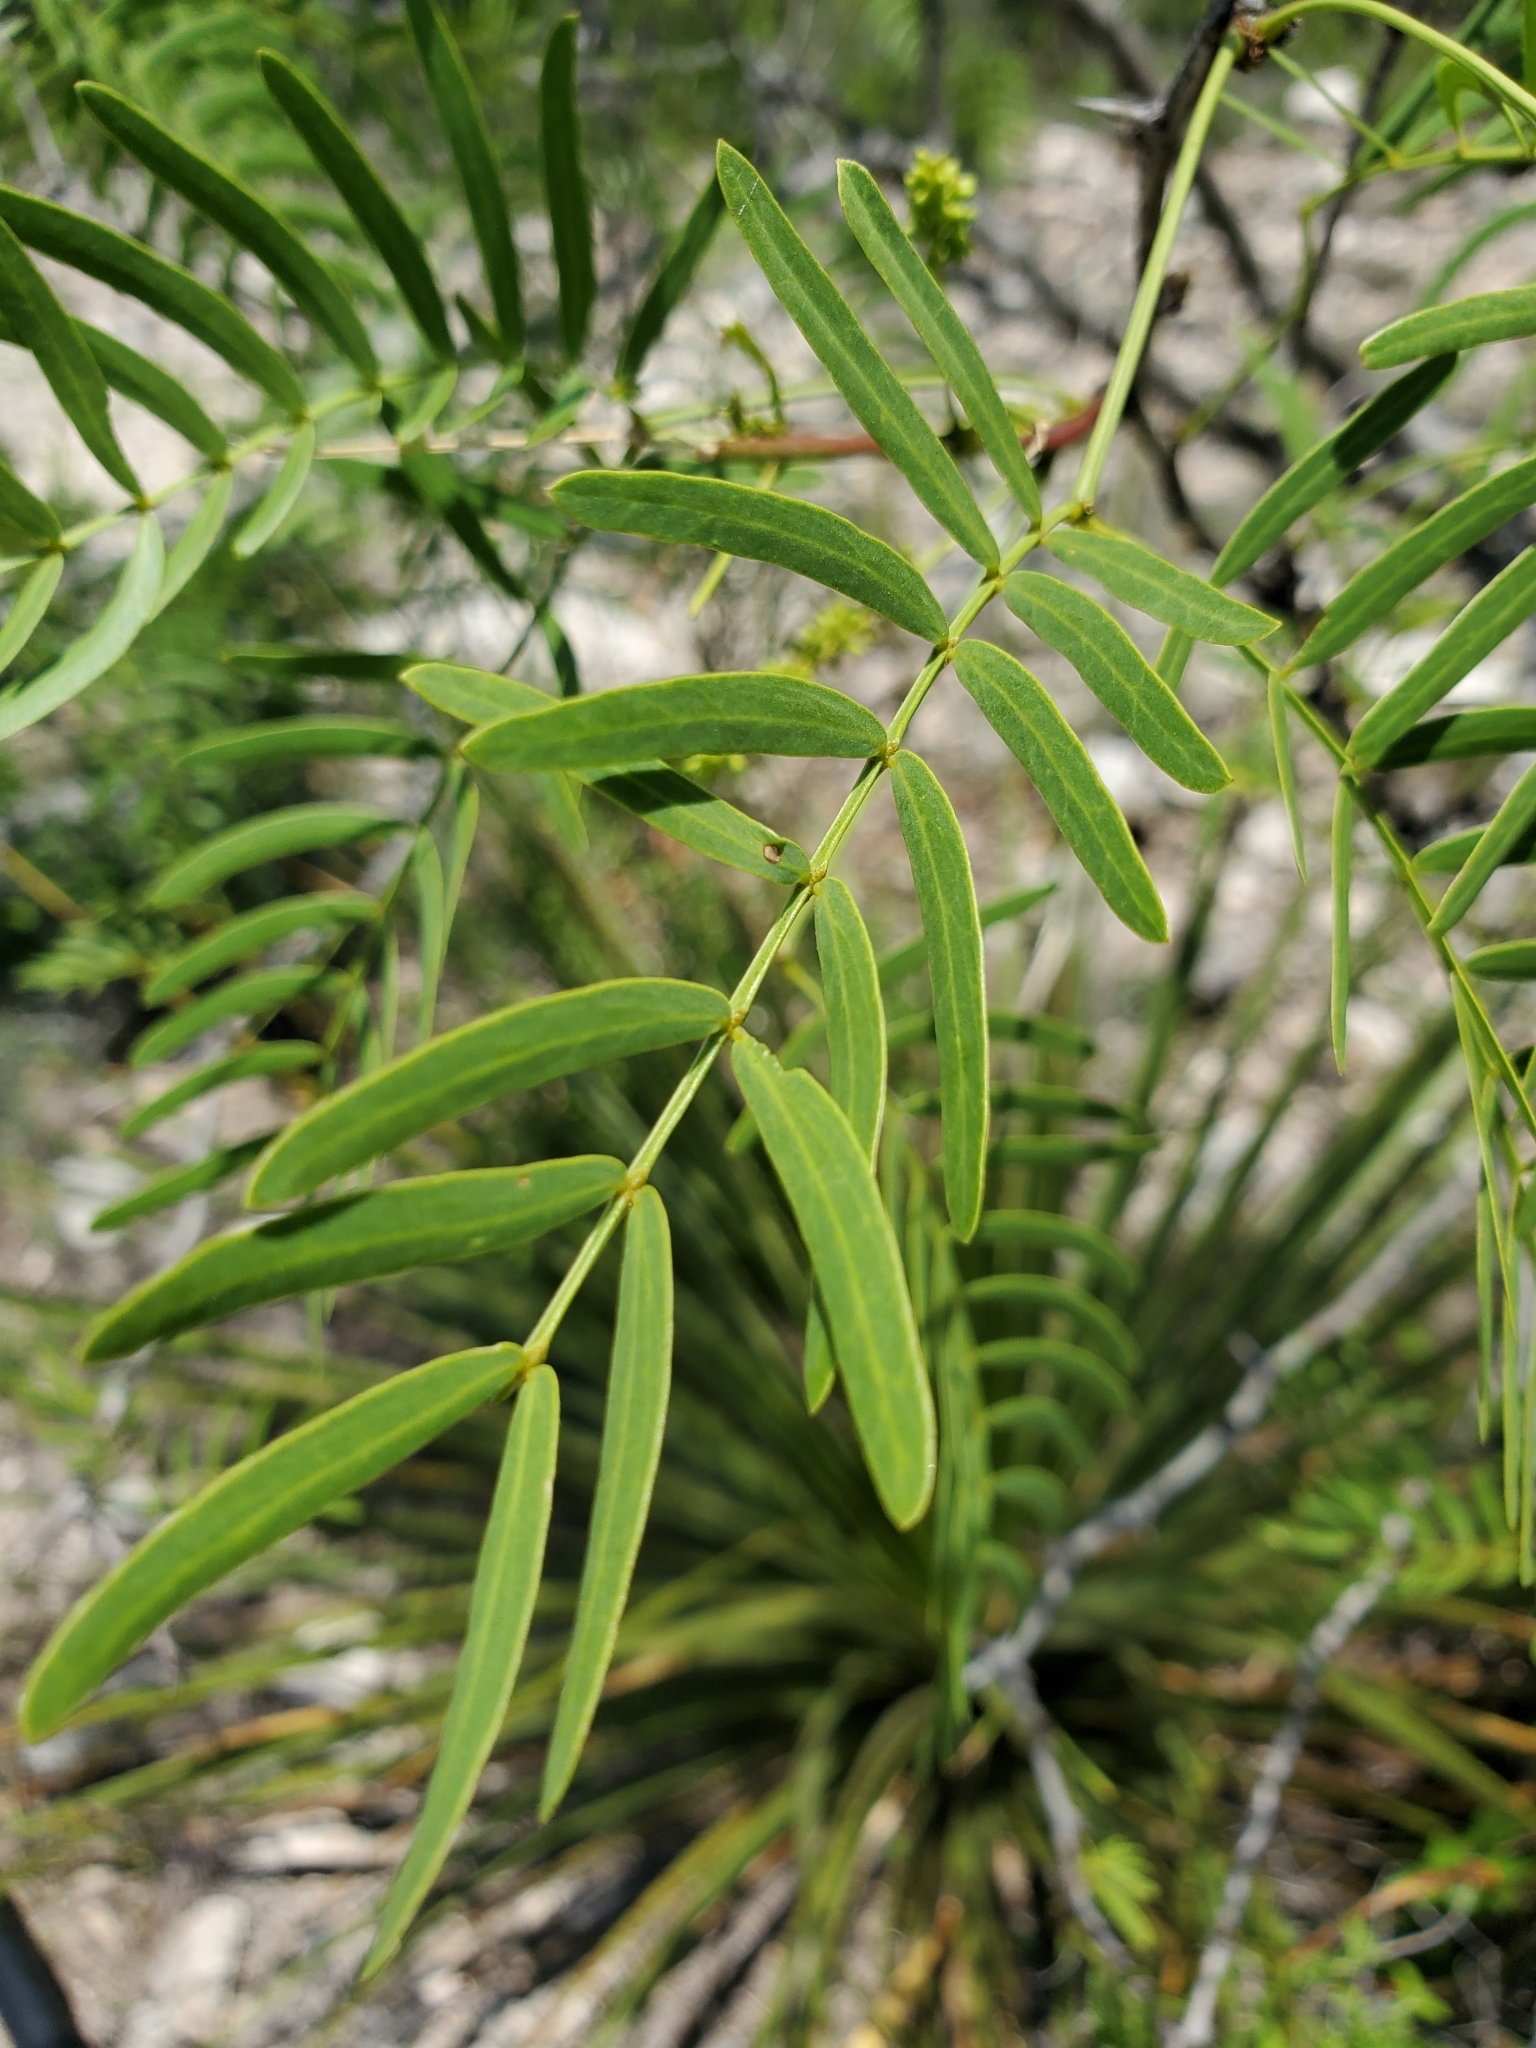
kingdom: Plantae
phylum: Tracheophyta
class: Magnoliopsida
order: Fabales
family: Fabaceae
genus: Prosopis
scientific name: Prosopis glandulosa
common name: Honey mesquite
